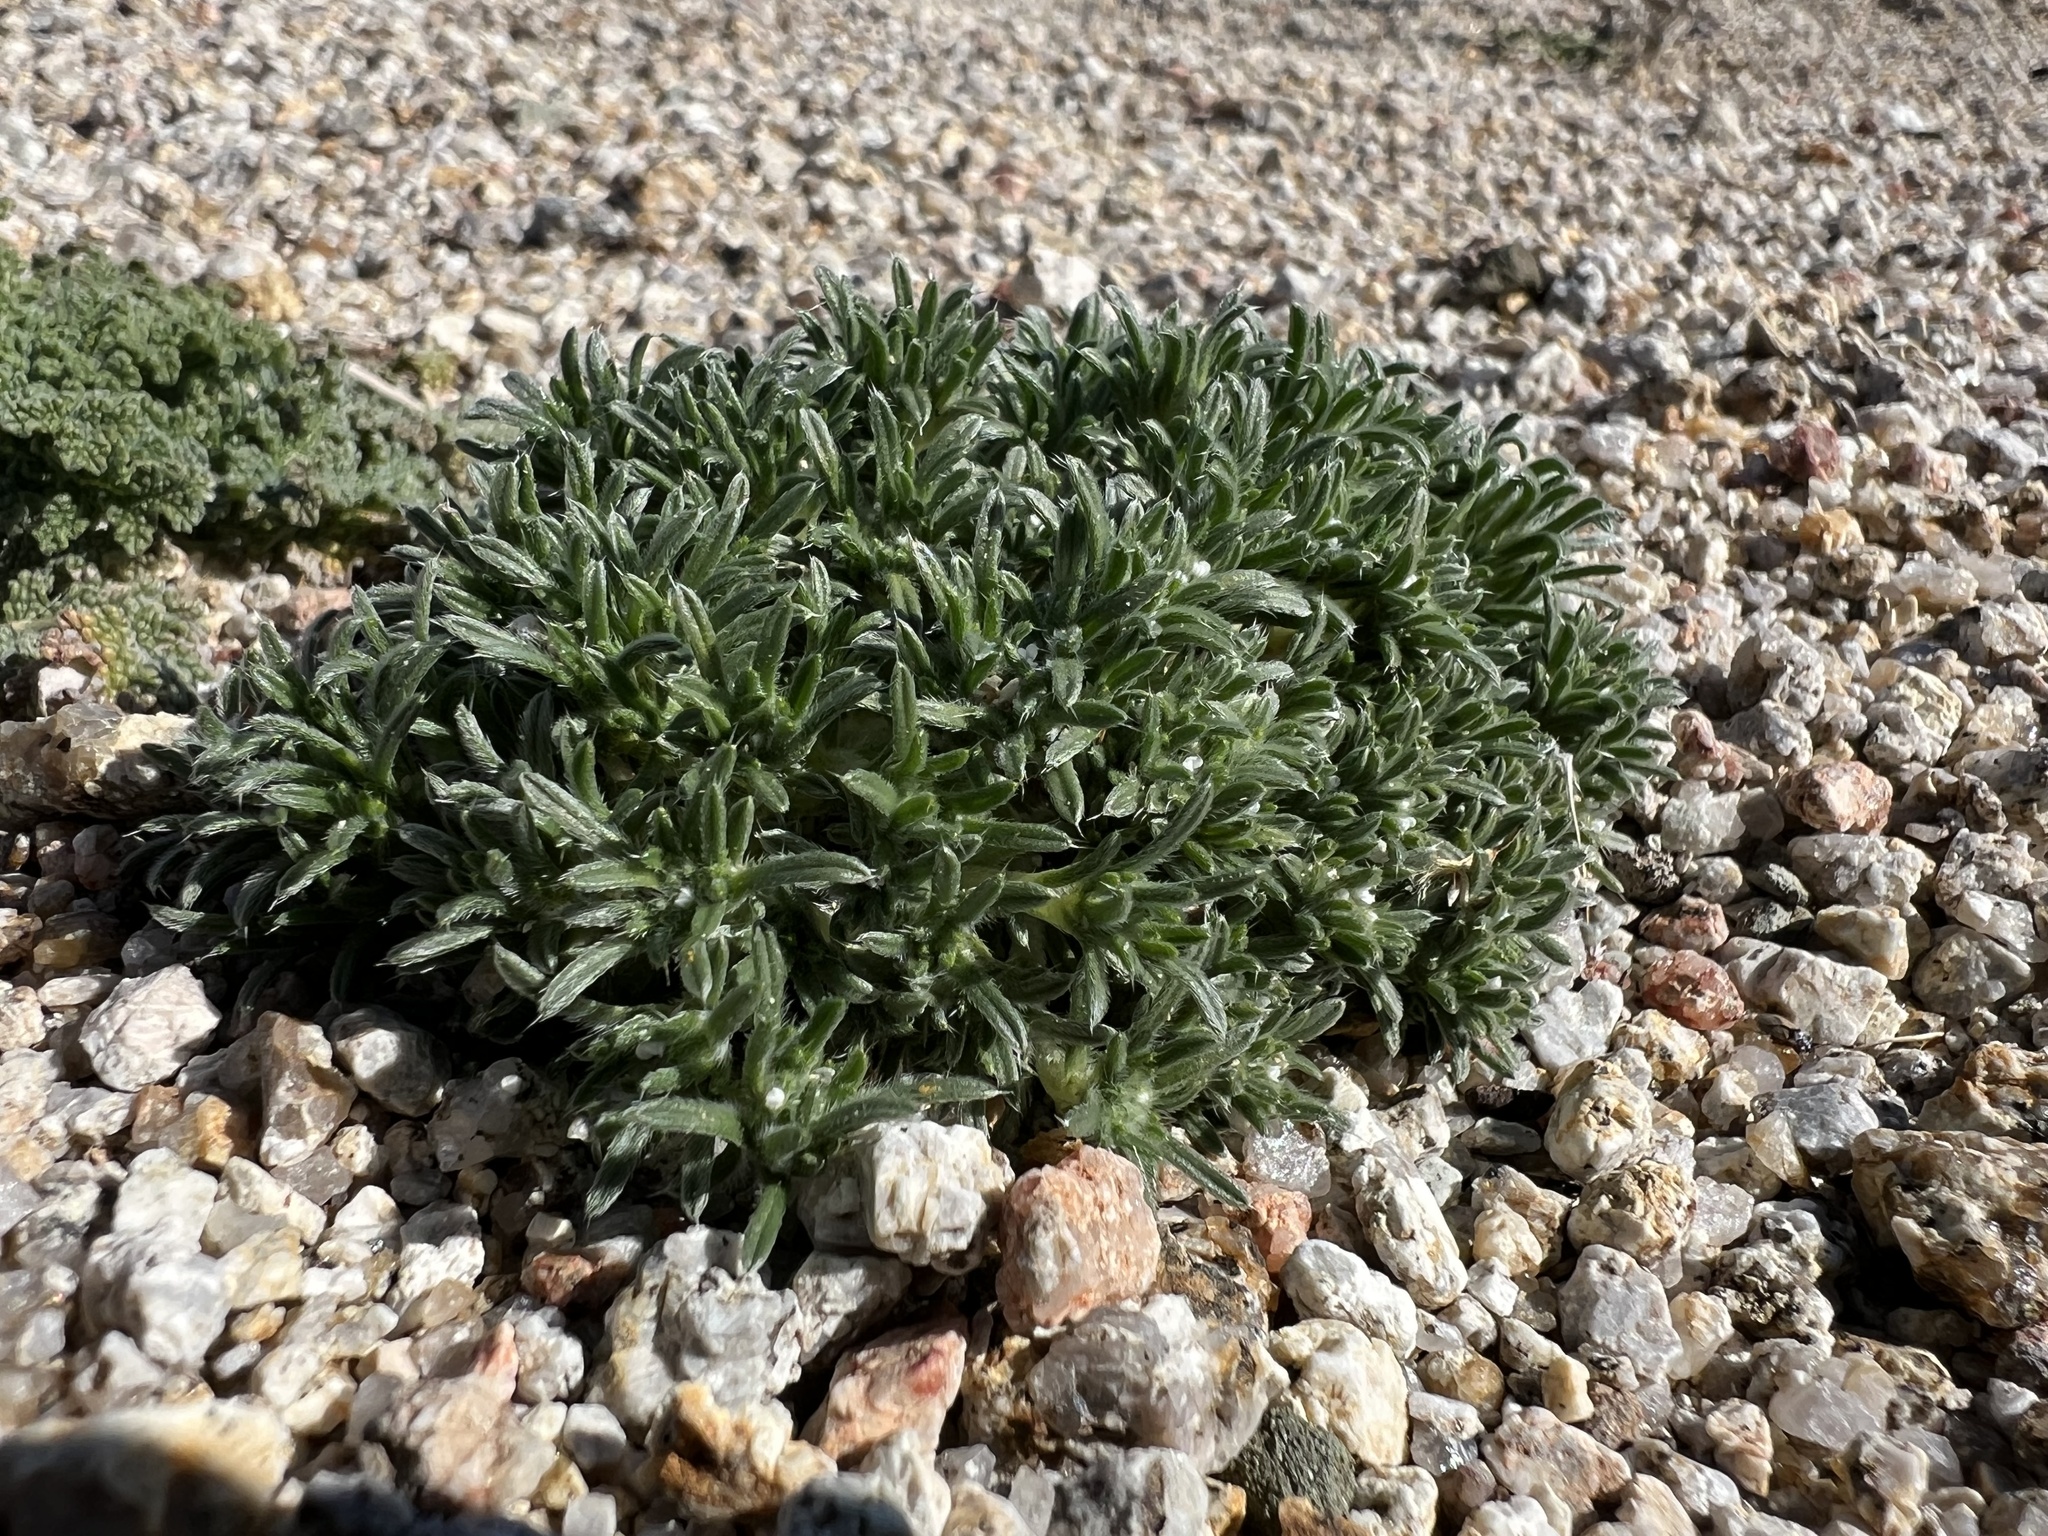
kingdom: Plantae
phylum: Tracheophyta
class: Magnoliopsida
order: Boraginales
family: Boraginaceae
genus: Greeneocharis
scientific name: Greeneocharis circumscissa
